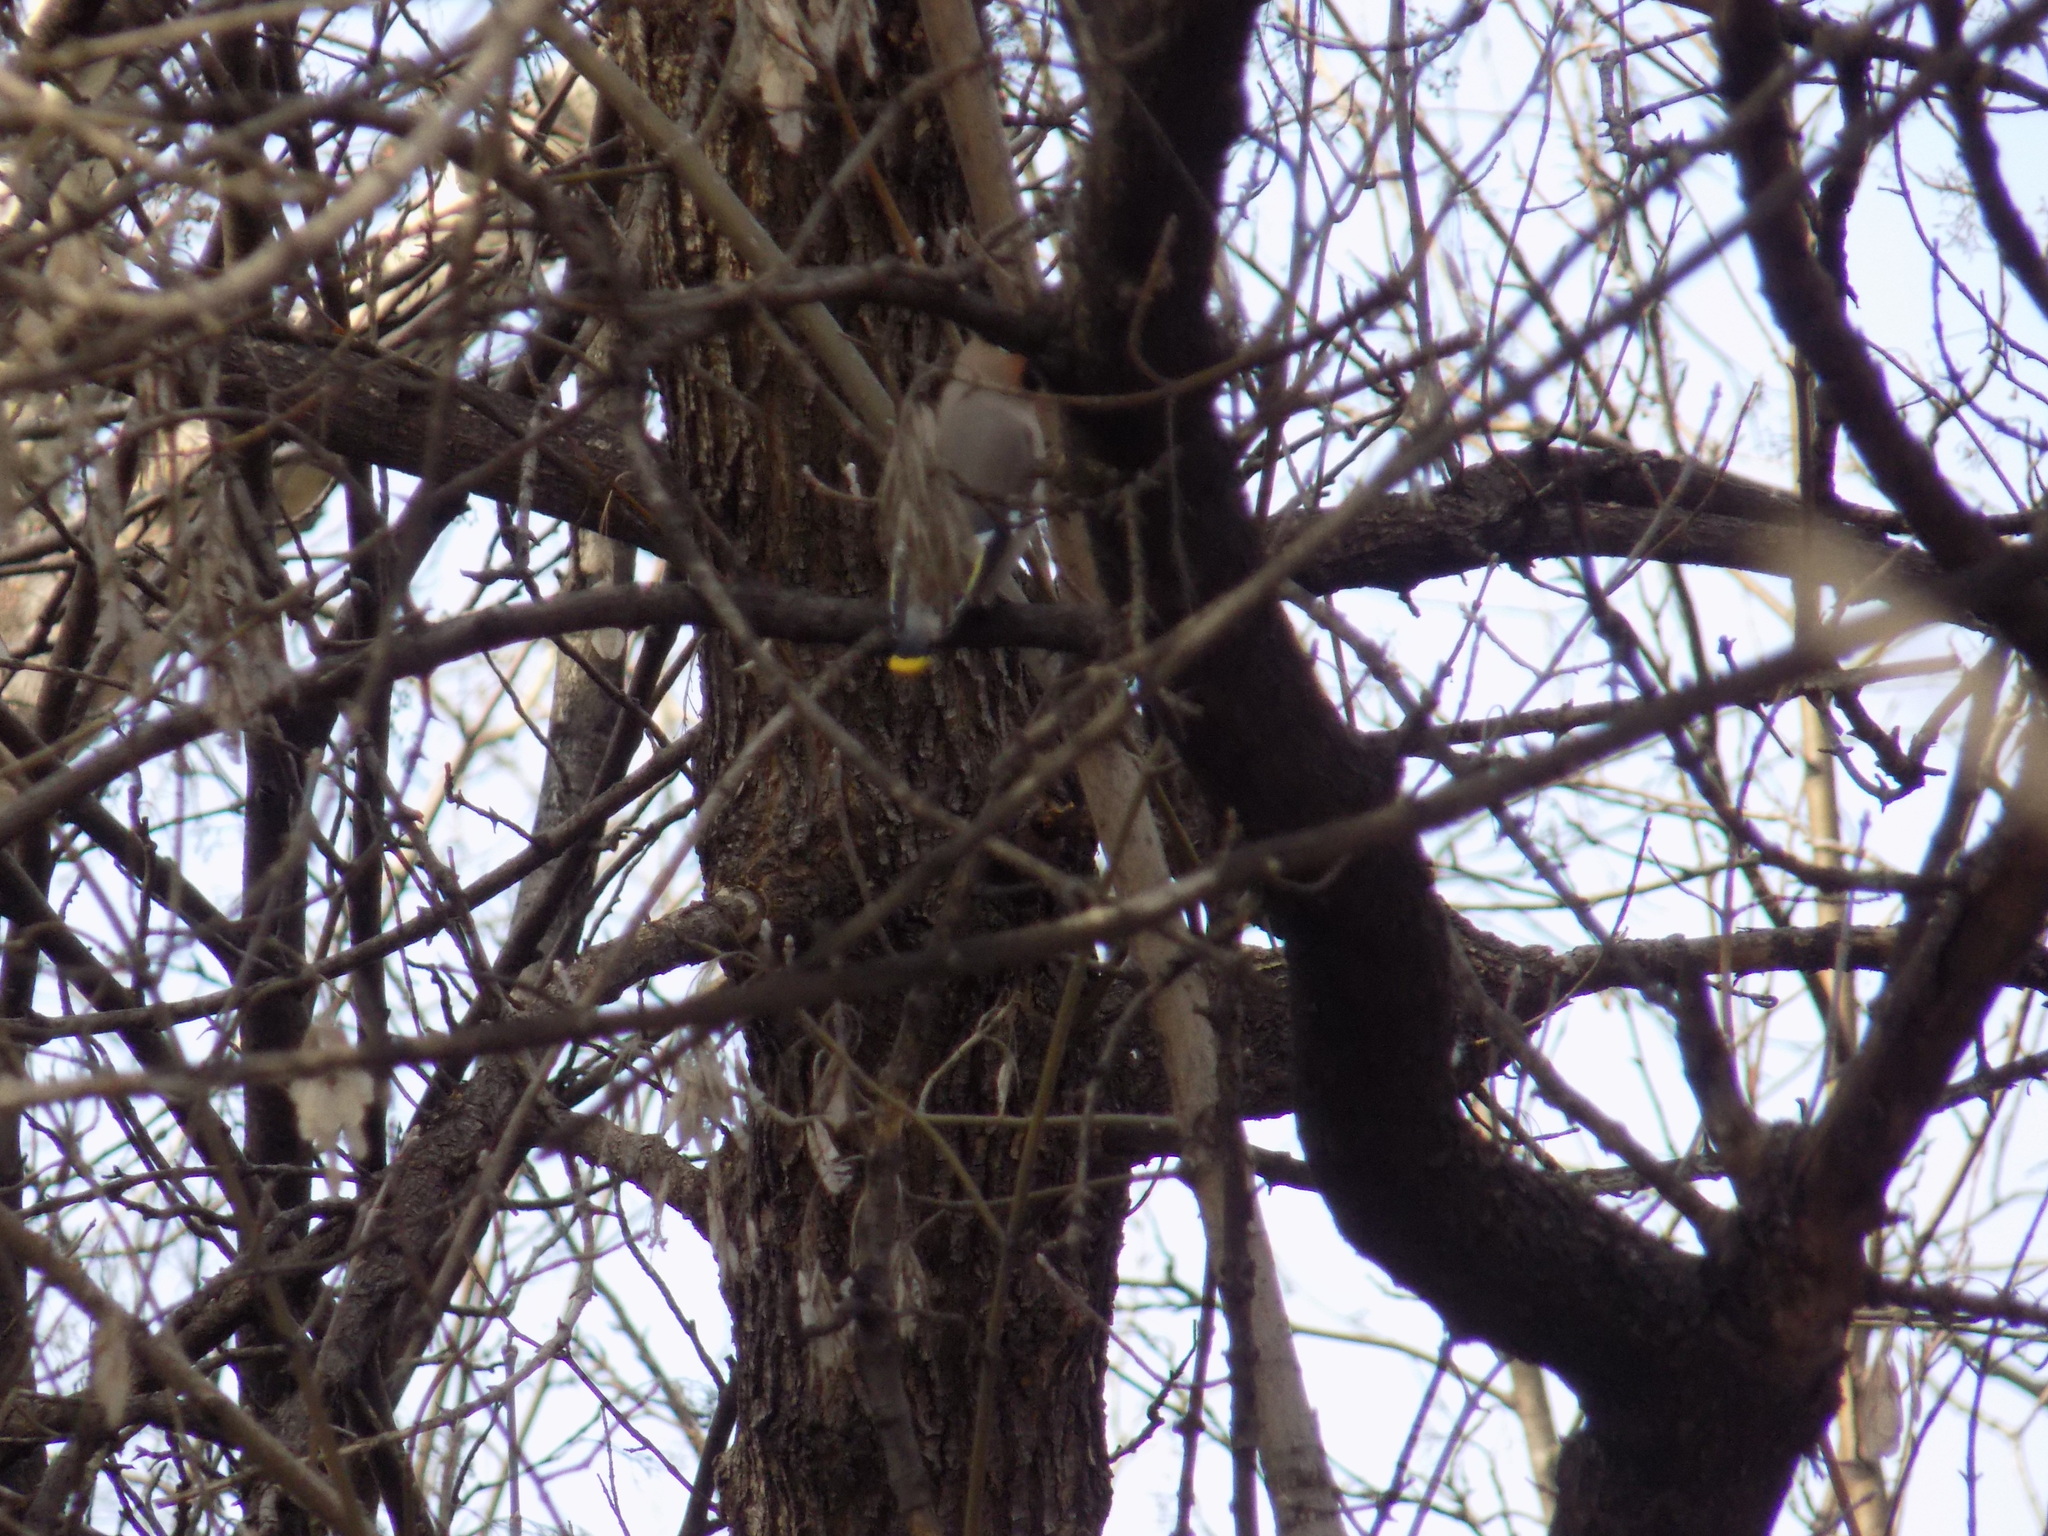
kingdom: Animalia
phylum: Chordata
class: Aves
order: Passeriformes
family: Bombycillidae
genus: Bombycilla
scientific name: Bombycilla garrulus
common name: Bohemian waxwing
